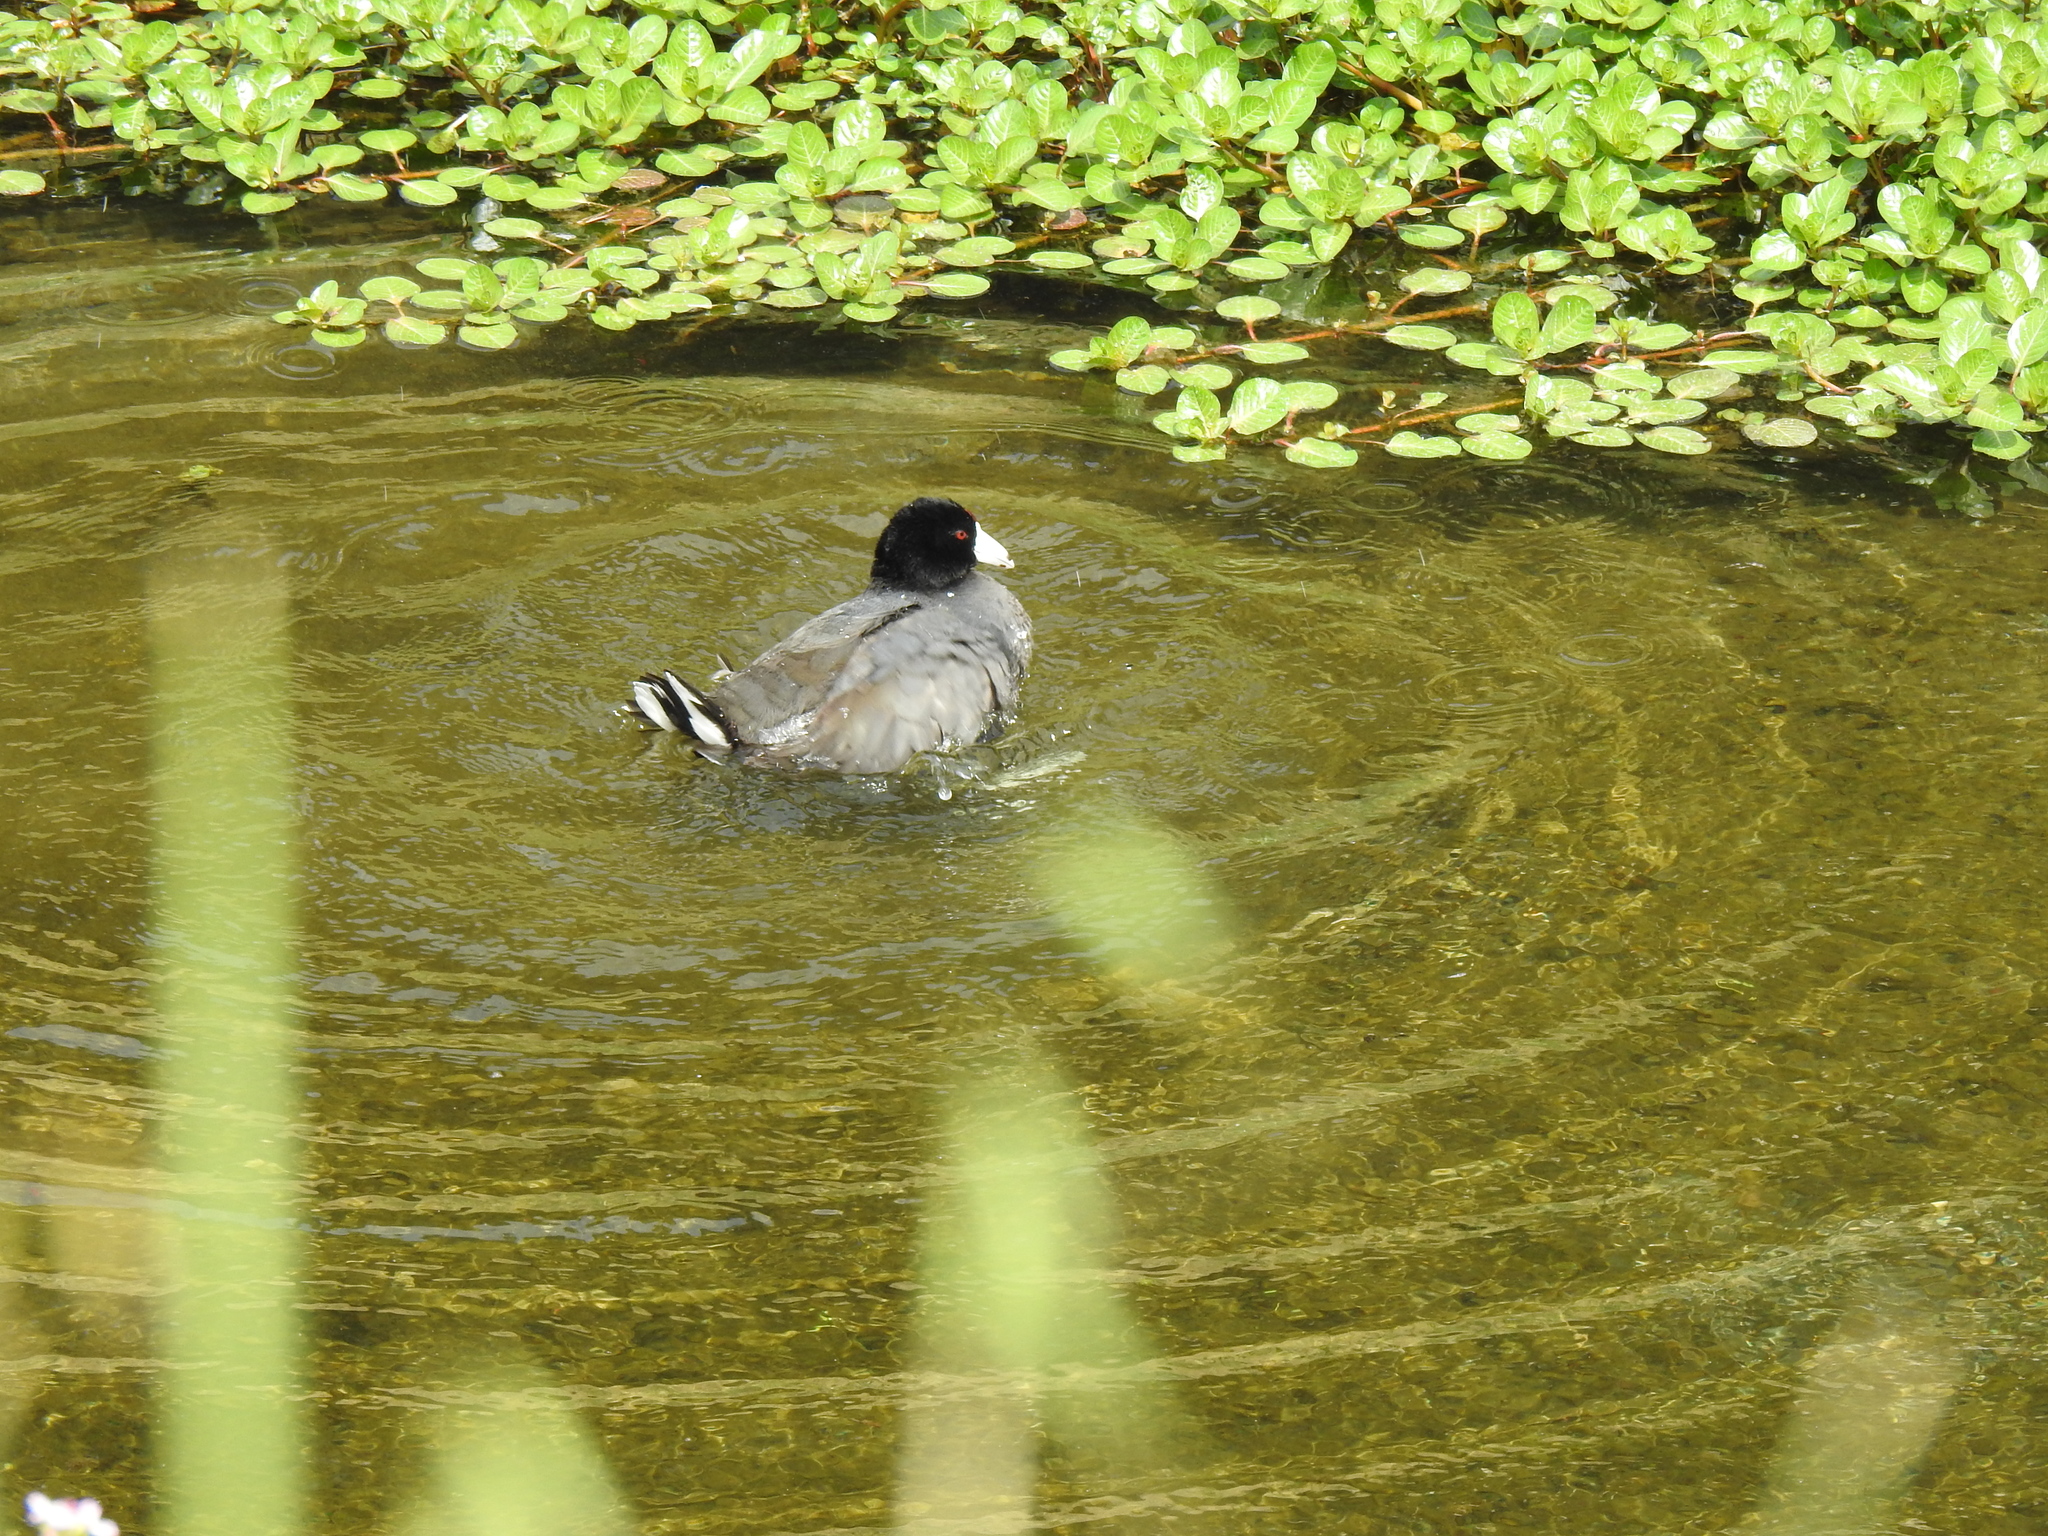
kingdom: Animalia
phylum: Chordata
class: Aves
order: Gruiformes
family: Rallidae
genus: Fulica
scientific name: Fulica americana
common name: American coot
